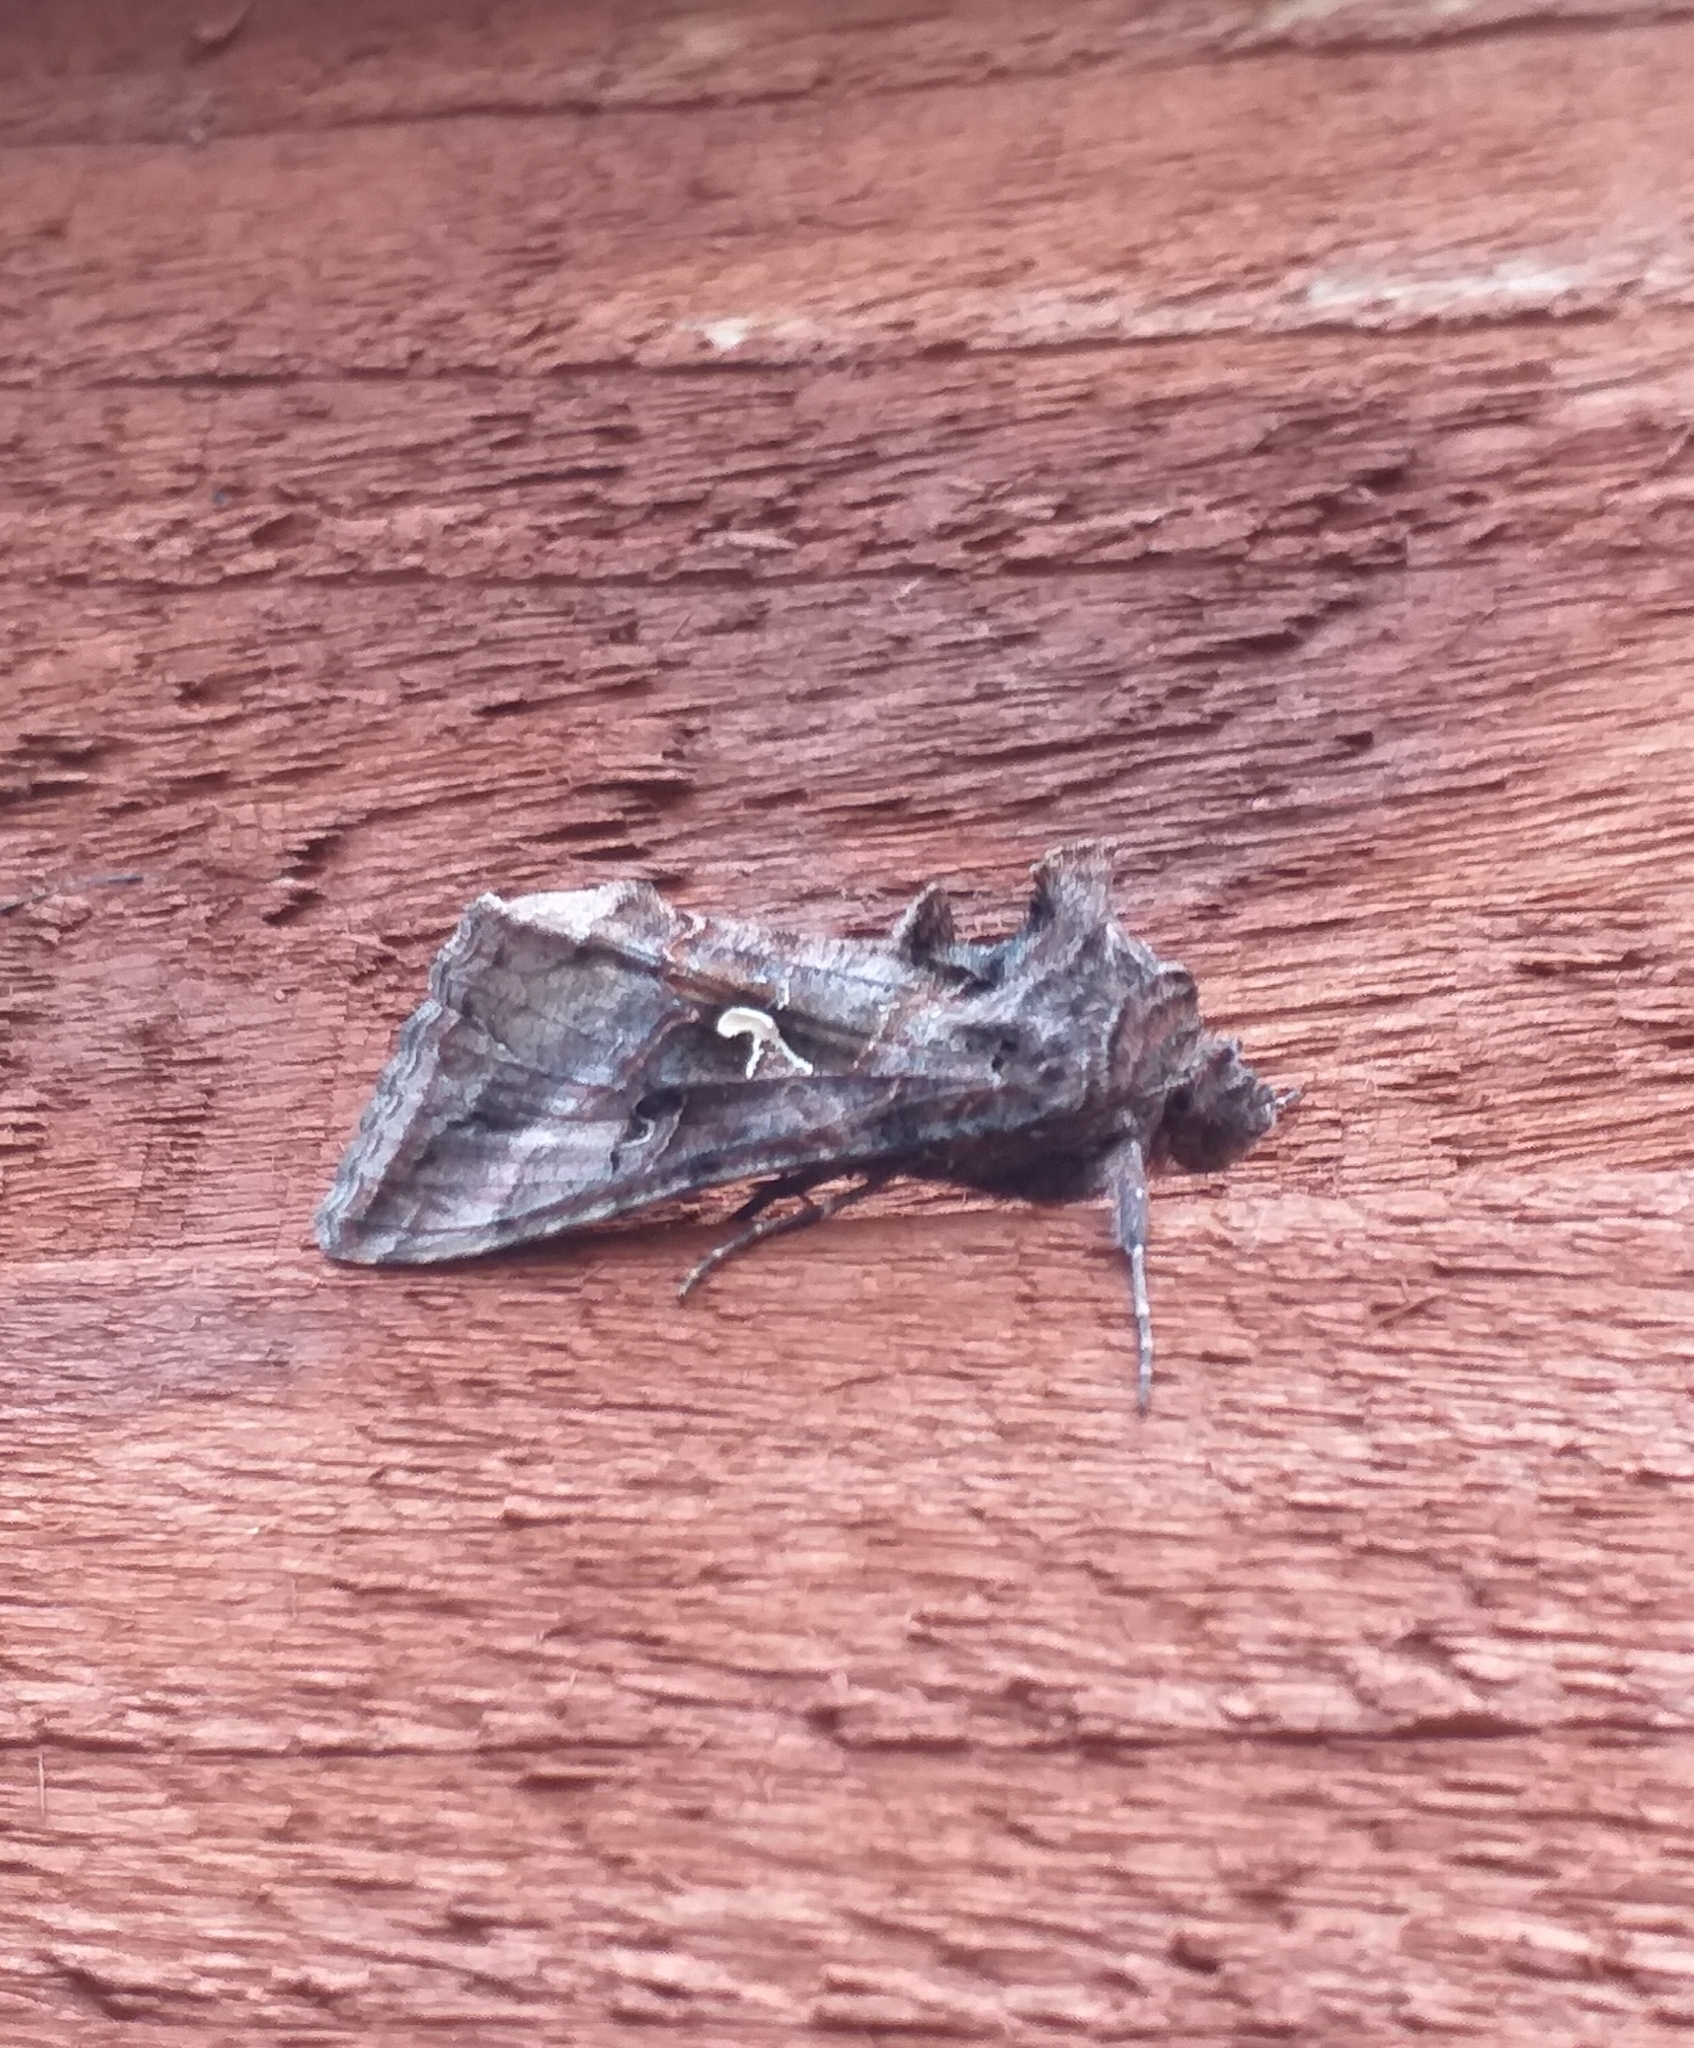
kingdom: Animalia
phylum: Arthropoda
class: Insecta
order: Lepidoptera
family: Noctuidae
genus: Autographa
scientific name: Autographa gamma
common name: Silver y
